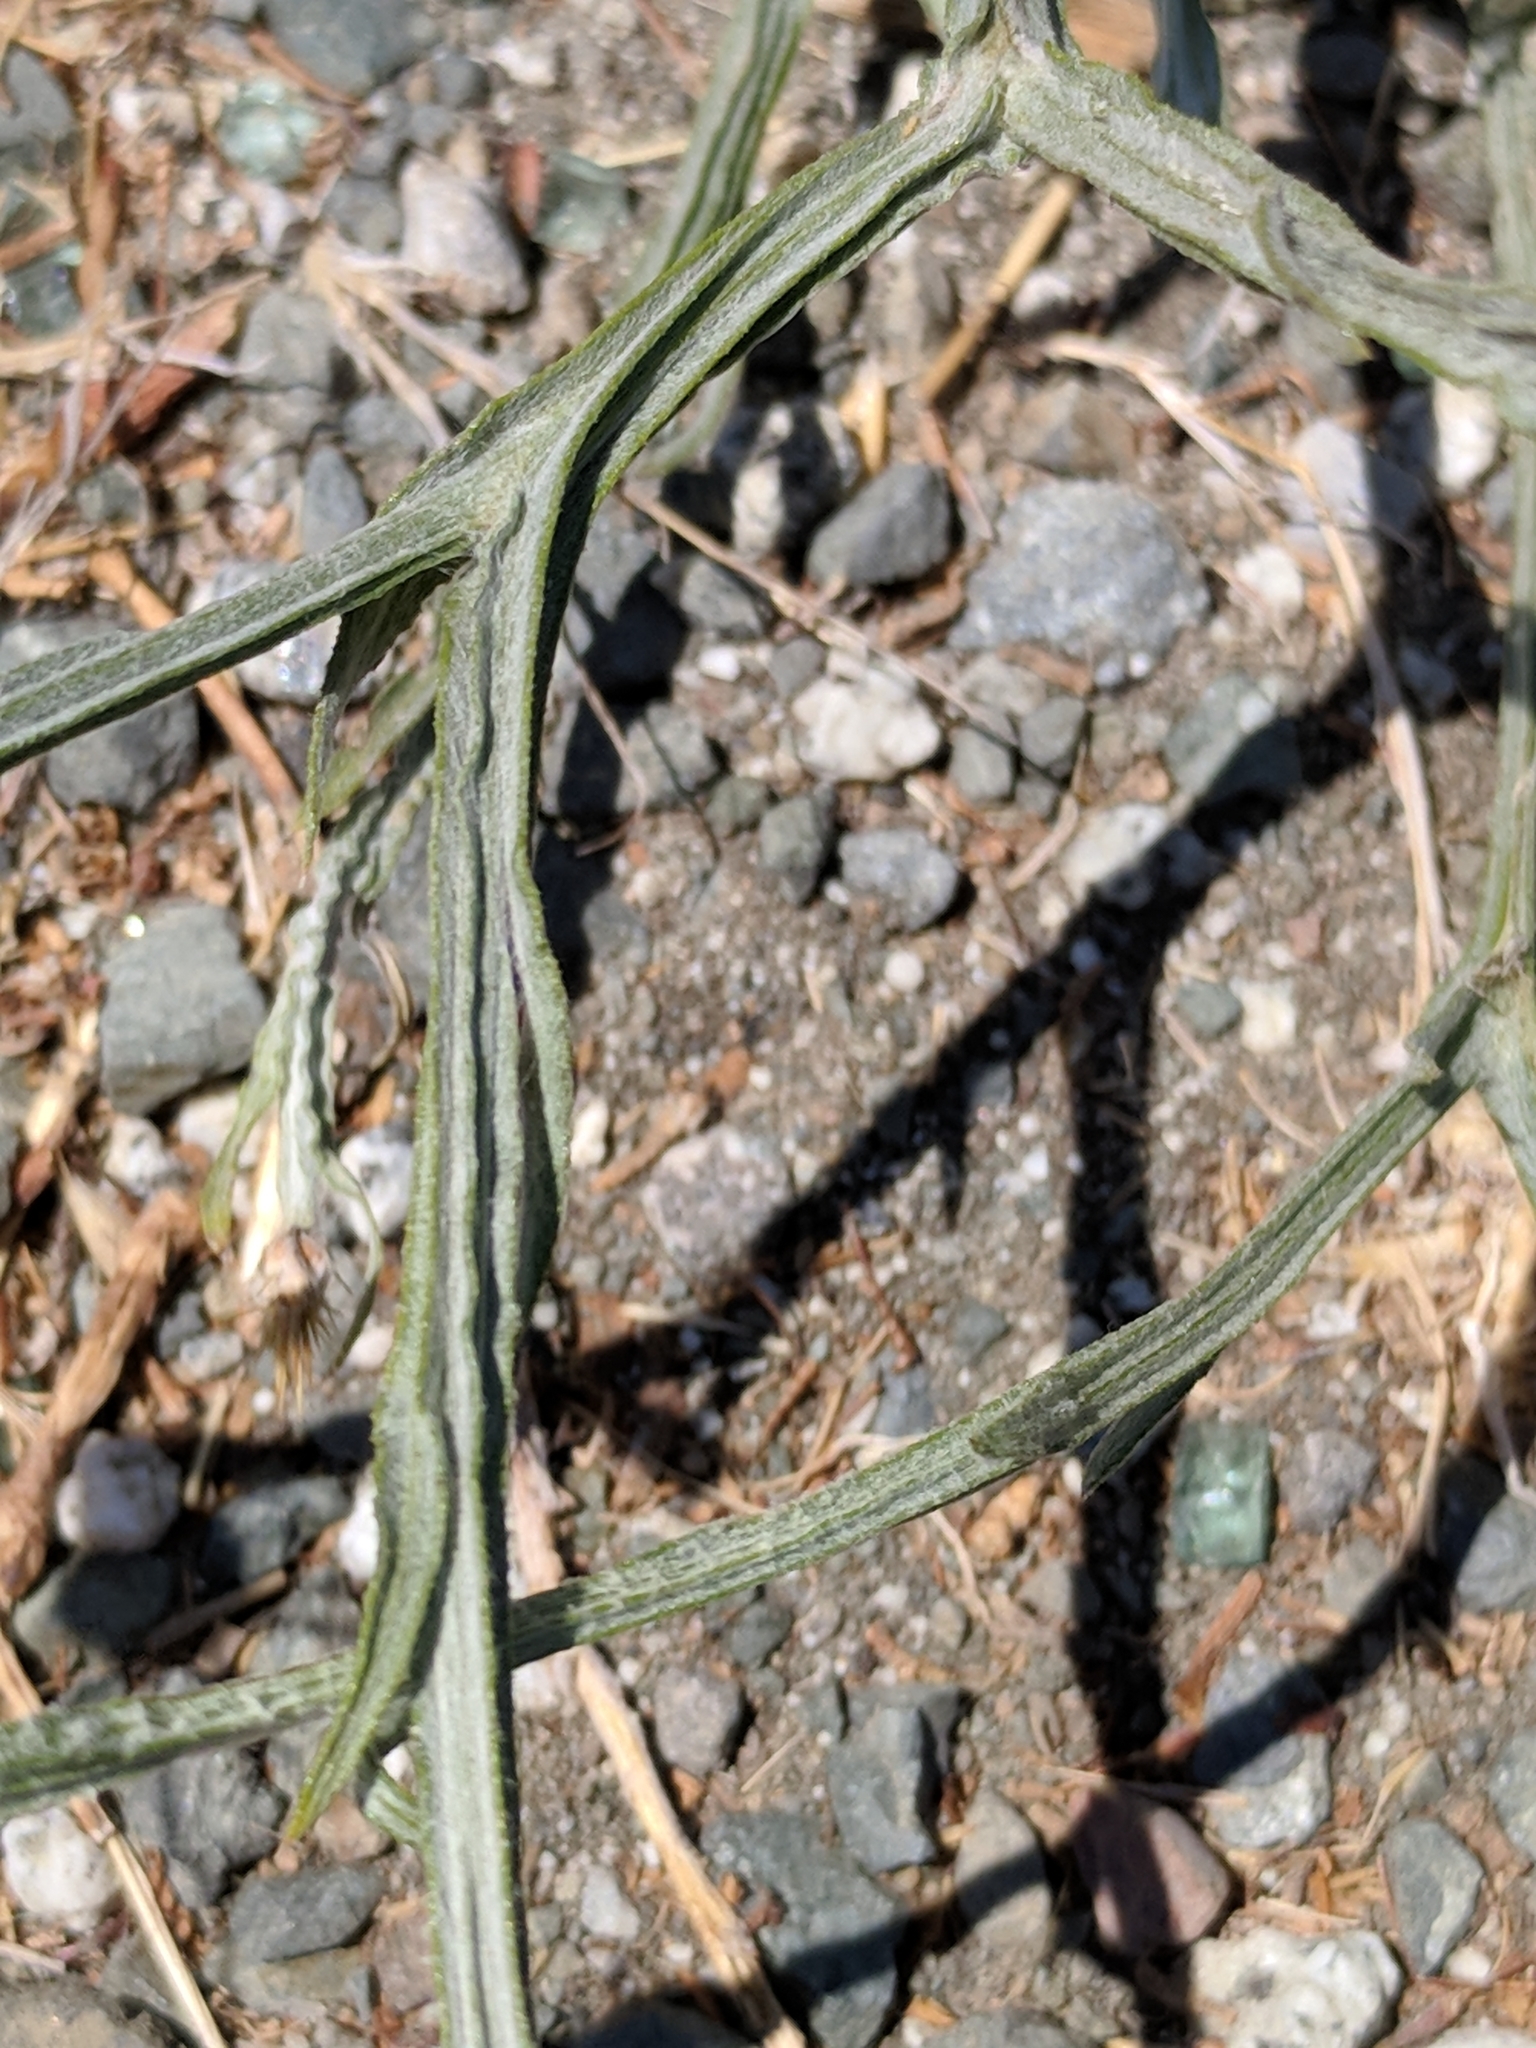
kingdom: Plantae
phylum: Tracheophyta
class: Magnoliopsida
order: Asterales
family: Asteraceae
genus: Centaurea
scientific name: Centaurea solstitialis
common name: Yellow star-thistle
